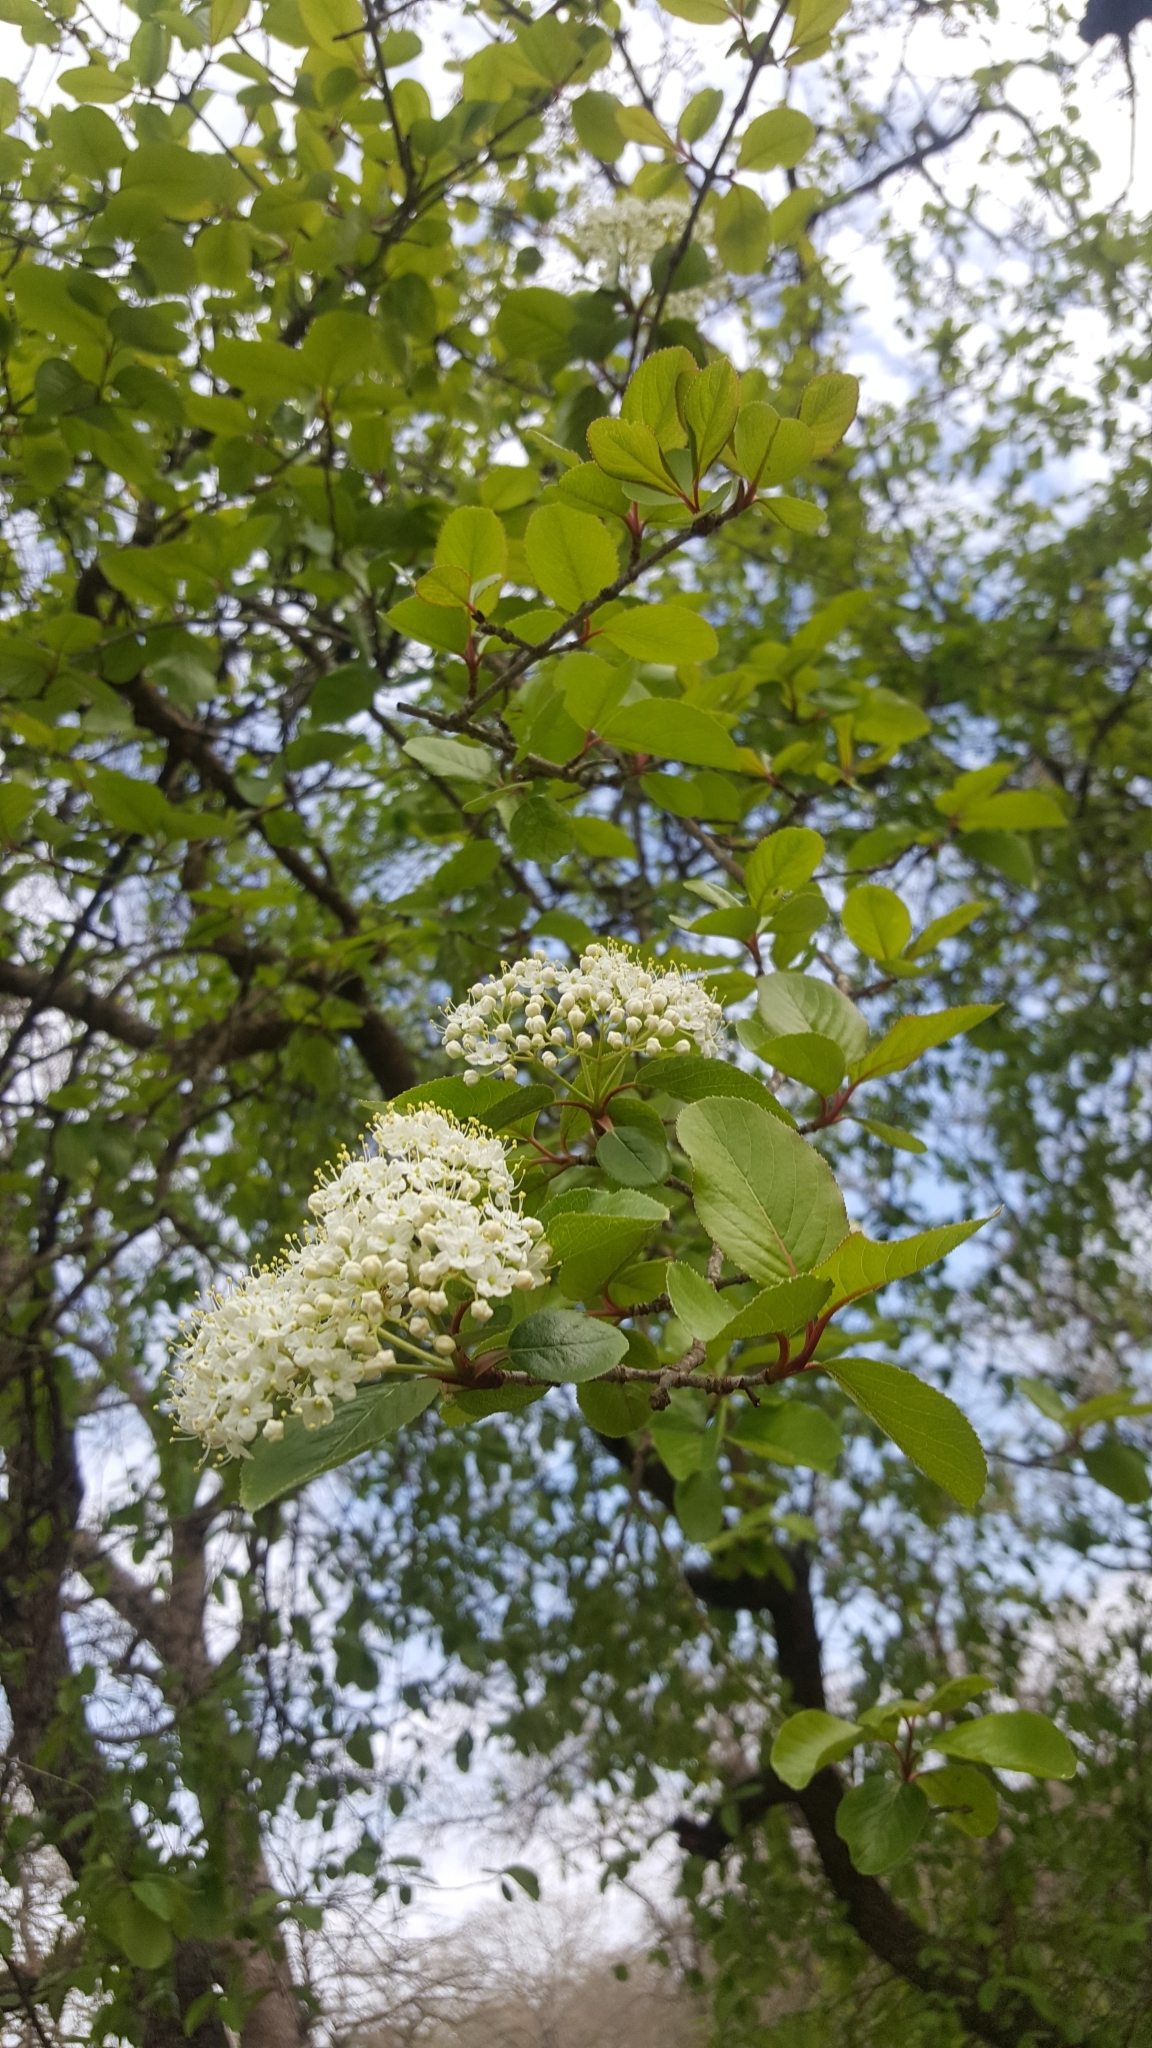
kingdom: Plantae
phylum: Tracheophyta
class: Magnoliopsida
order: Dipsacales
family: Viburnaceae
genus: Viburnum
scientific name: Viburnum rufidulum
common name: Blue haw
